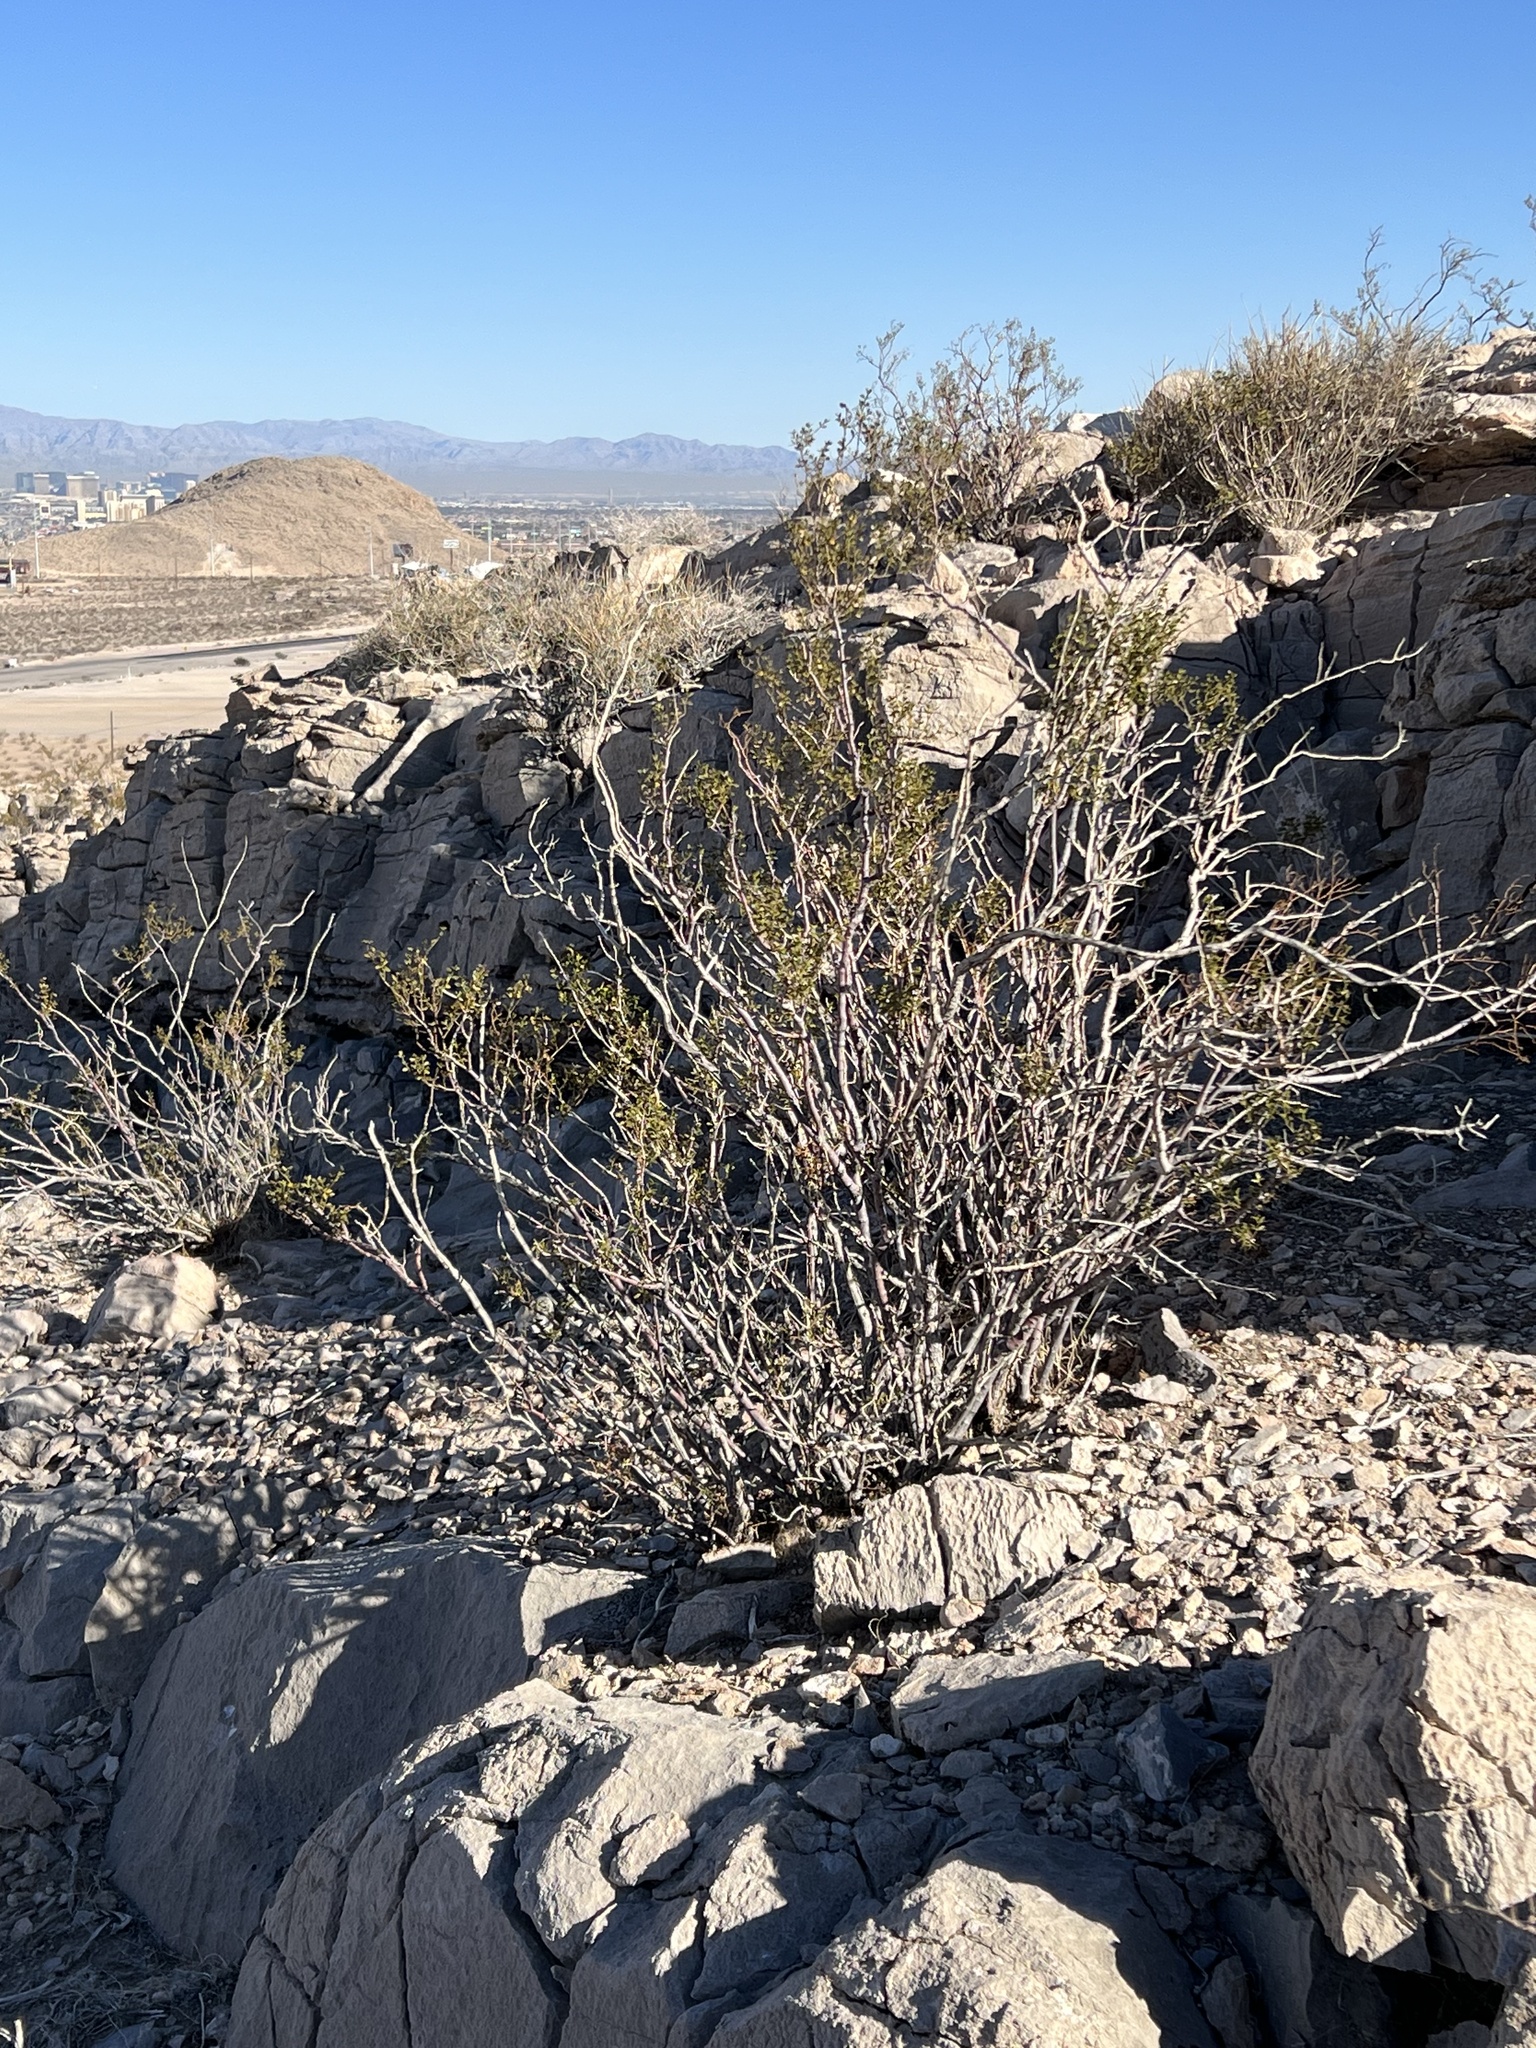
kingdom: Plantae
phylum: Tracheophyta
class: Magnoliopsida
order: Zygophyllales
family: Zygophyllaceae
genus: Larrea
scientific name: Larrea tridentata
